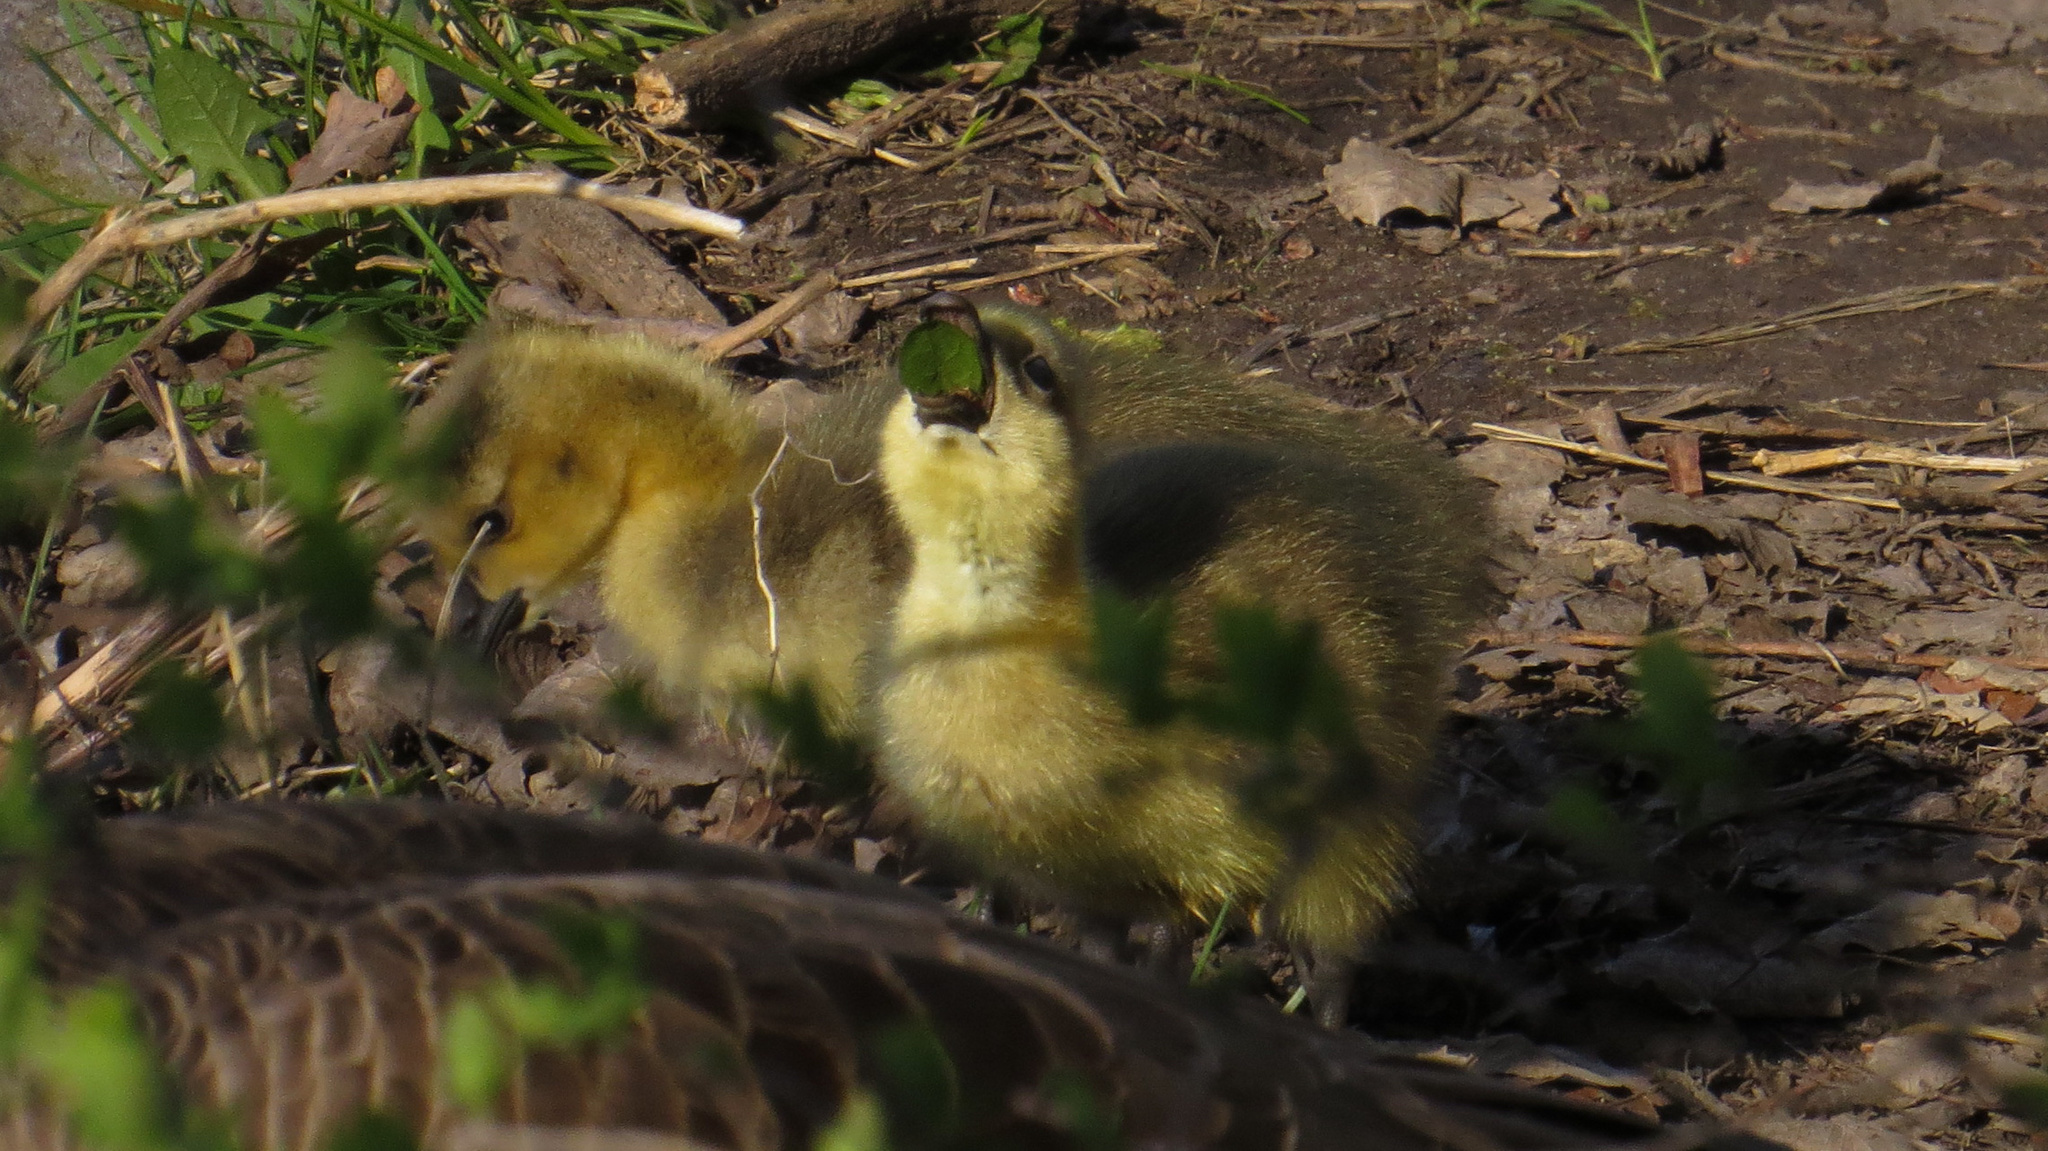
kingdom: Animalia
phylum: Chordata
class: Aves
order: Anseriformes
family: Anatidae
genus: Branta
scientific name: Branta canadensis
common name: Canada goose
